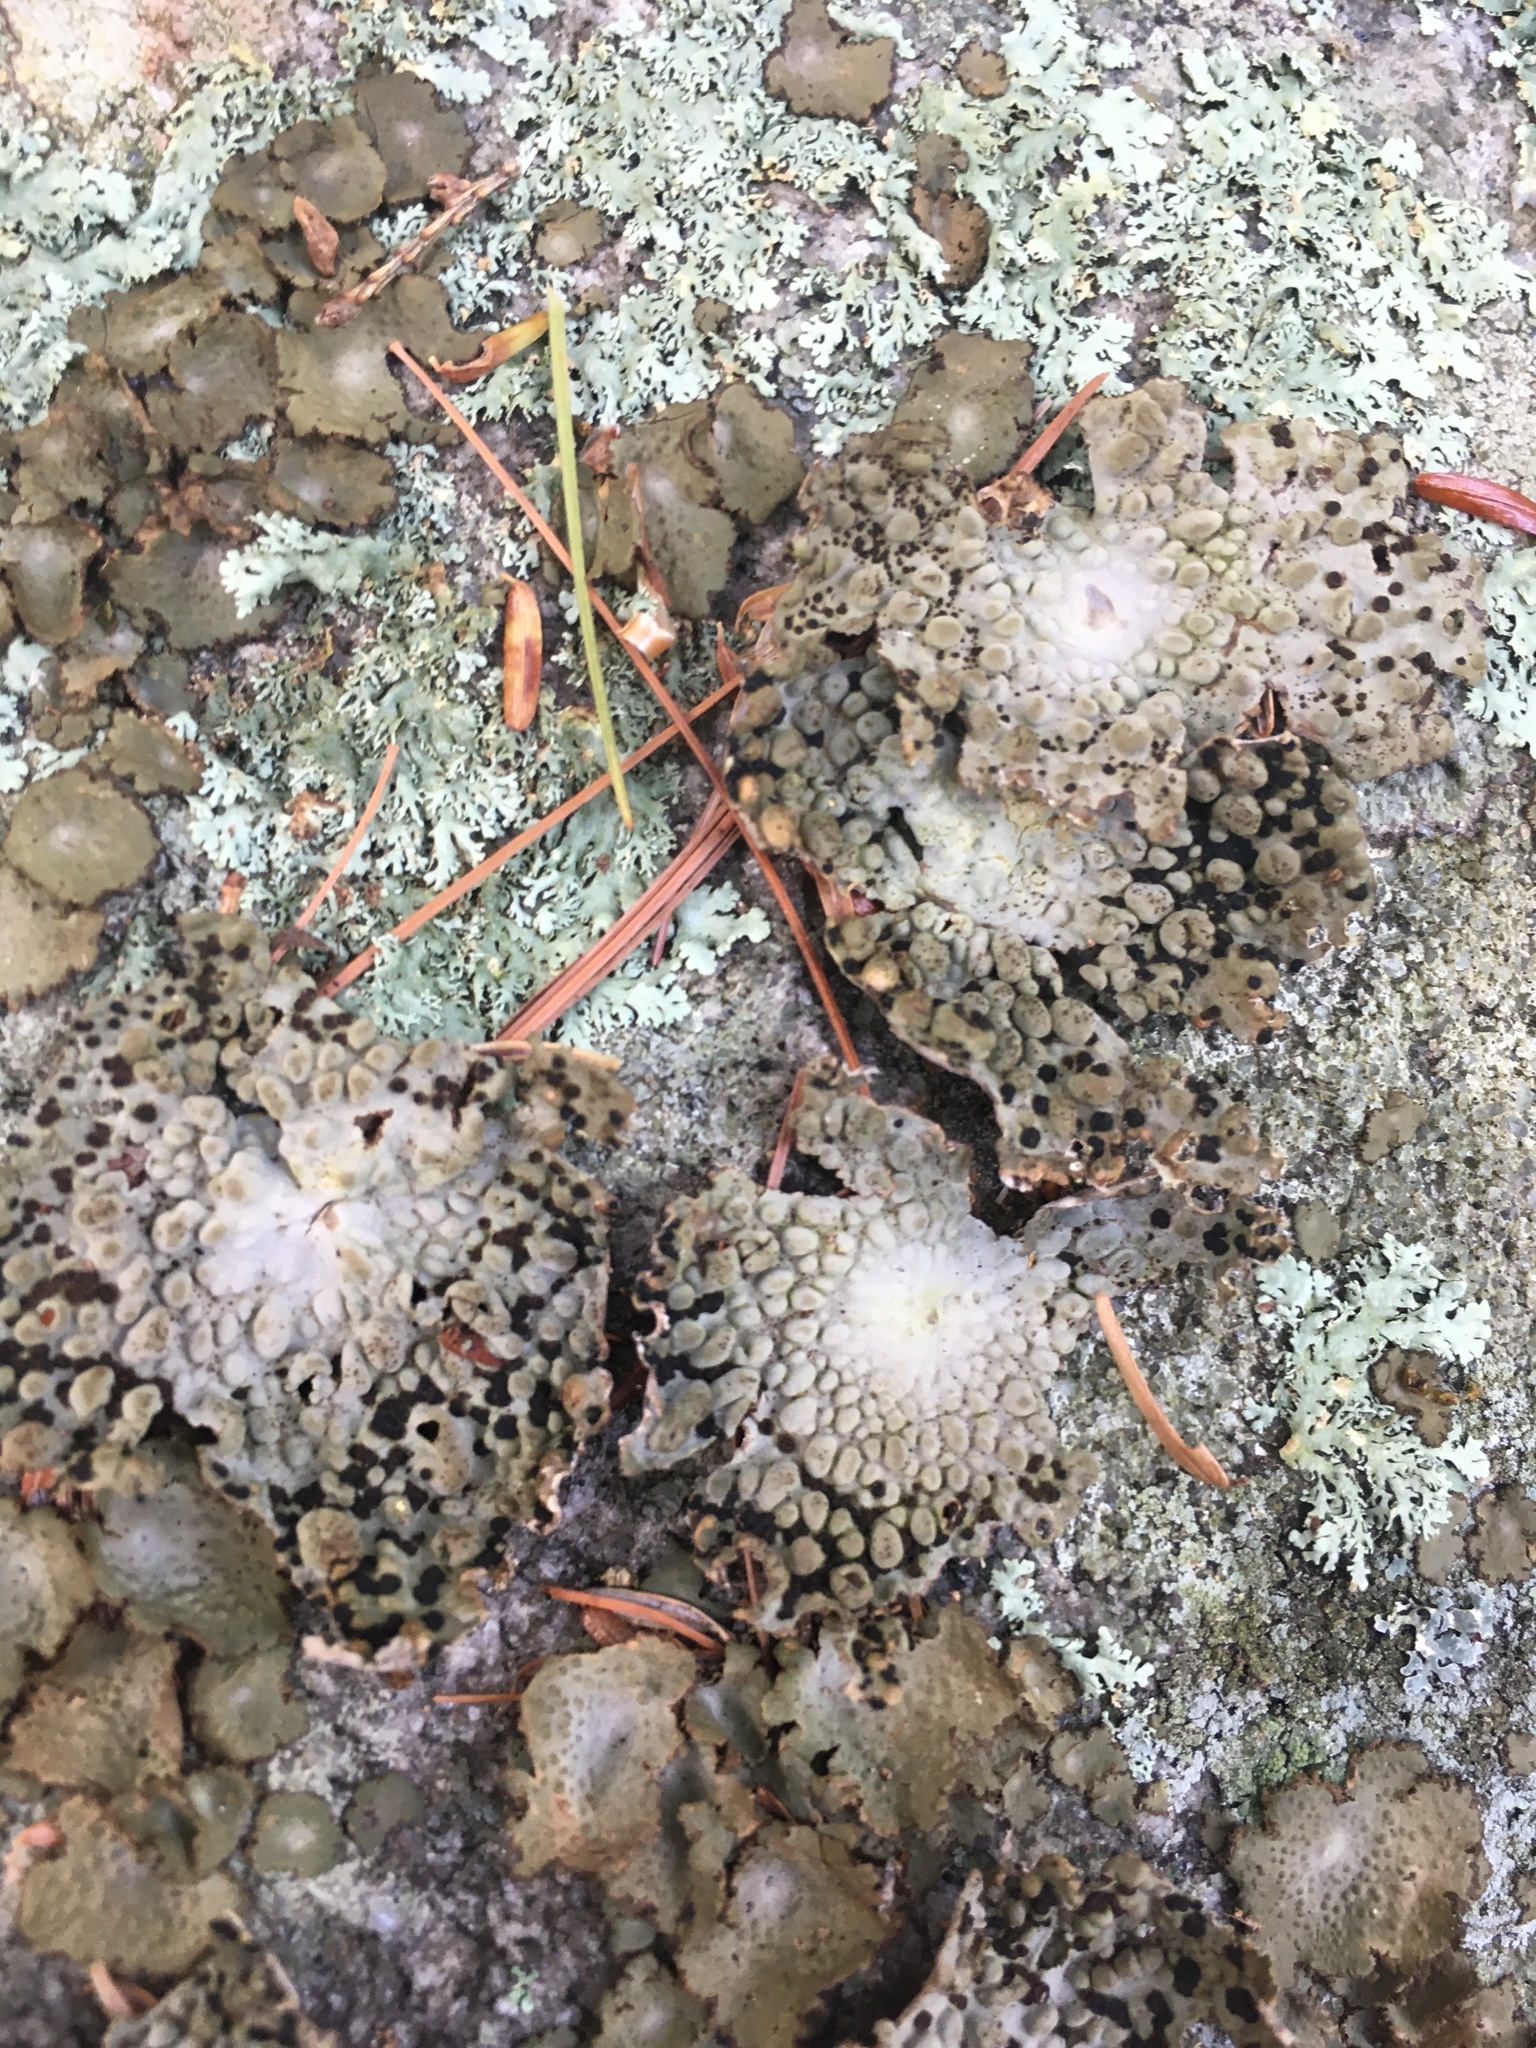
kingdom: Fungi
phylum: Ascomycota
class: Lecanoromycetes
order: Umbilicariales
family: Umbilicariaceae
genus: Lasallia
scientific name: Lasallia papulosa
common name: Common toadskin lichen
